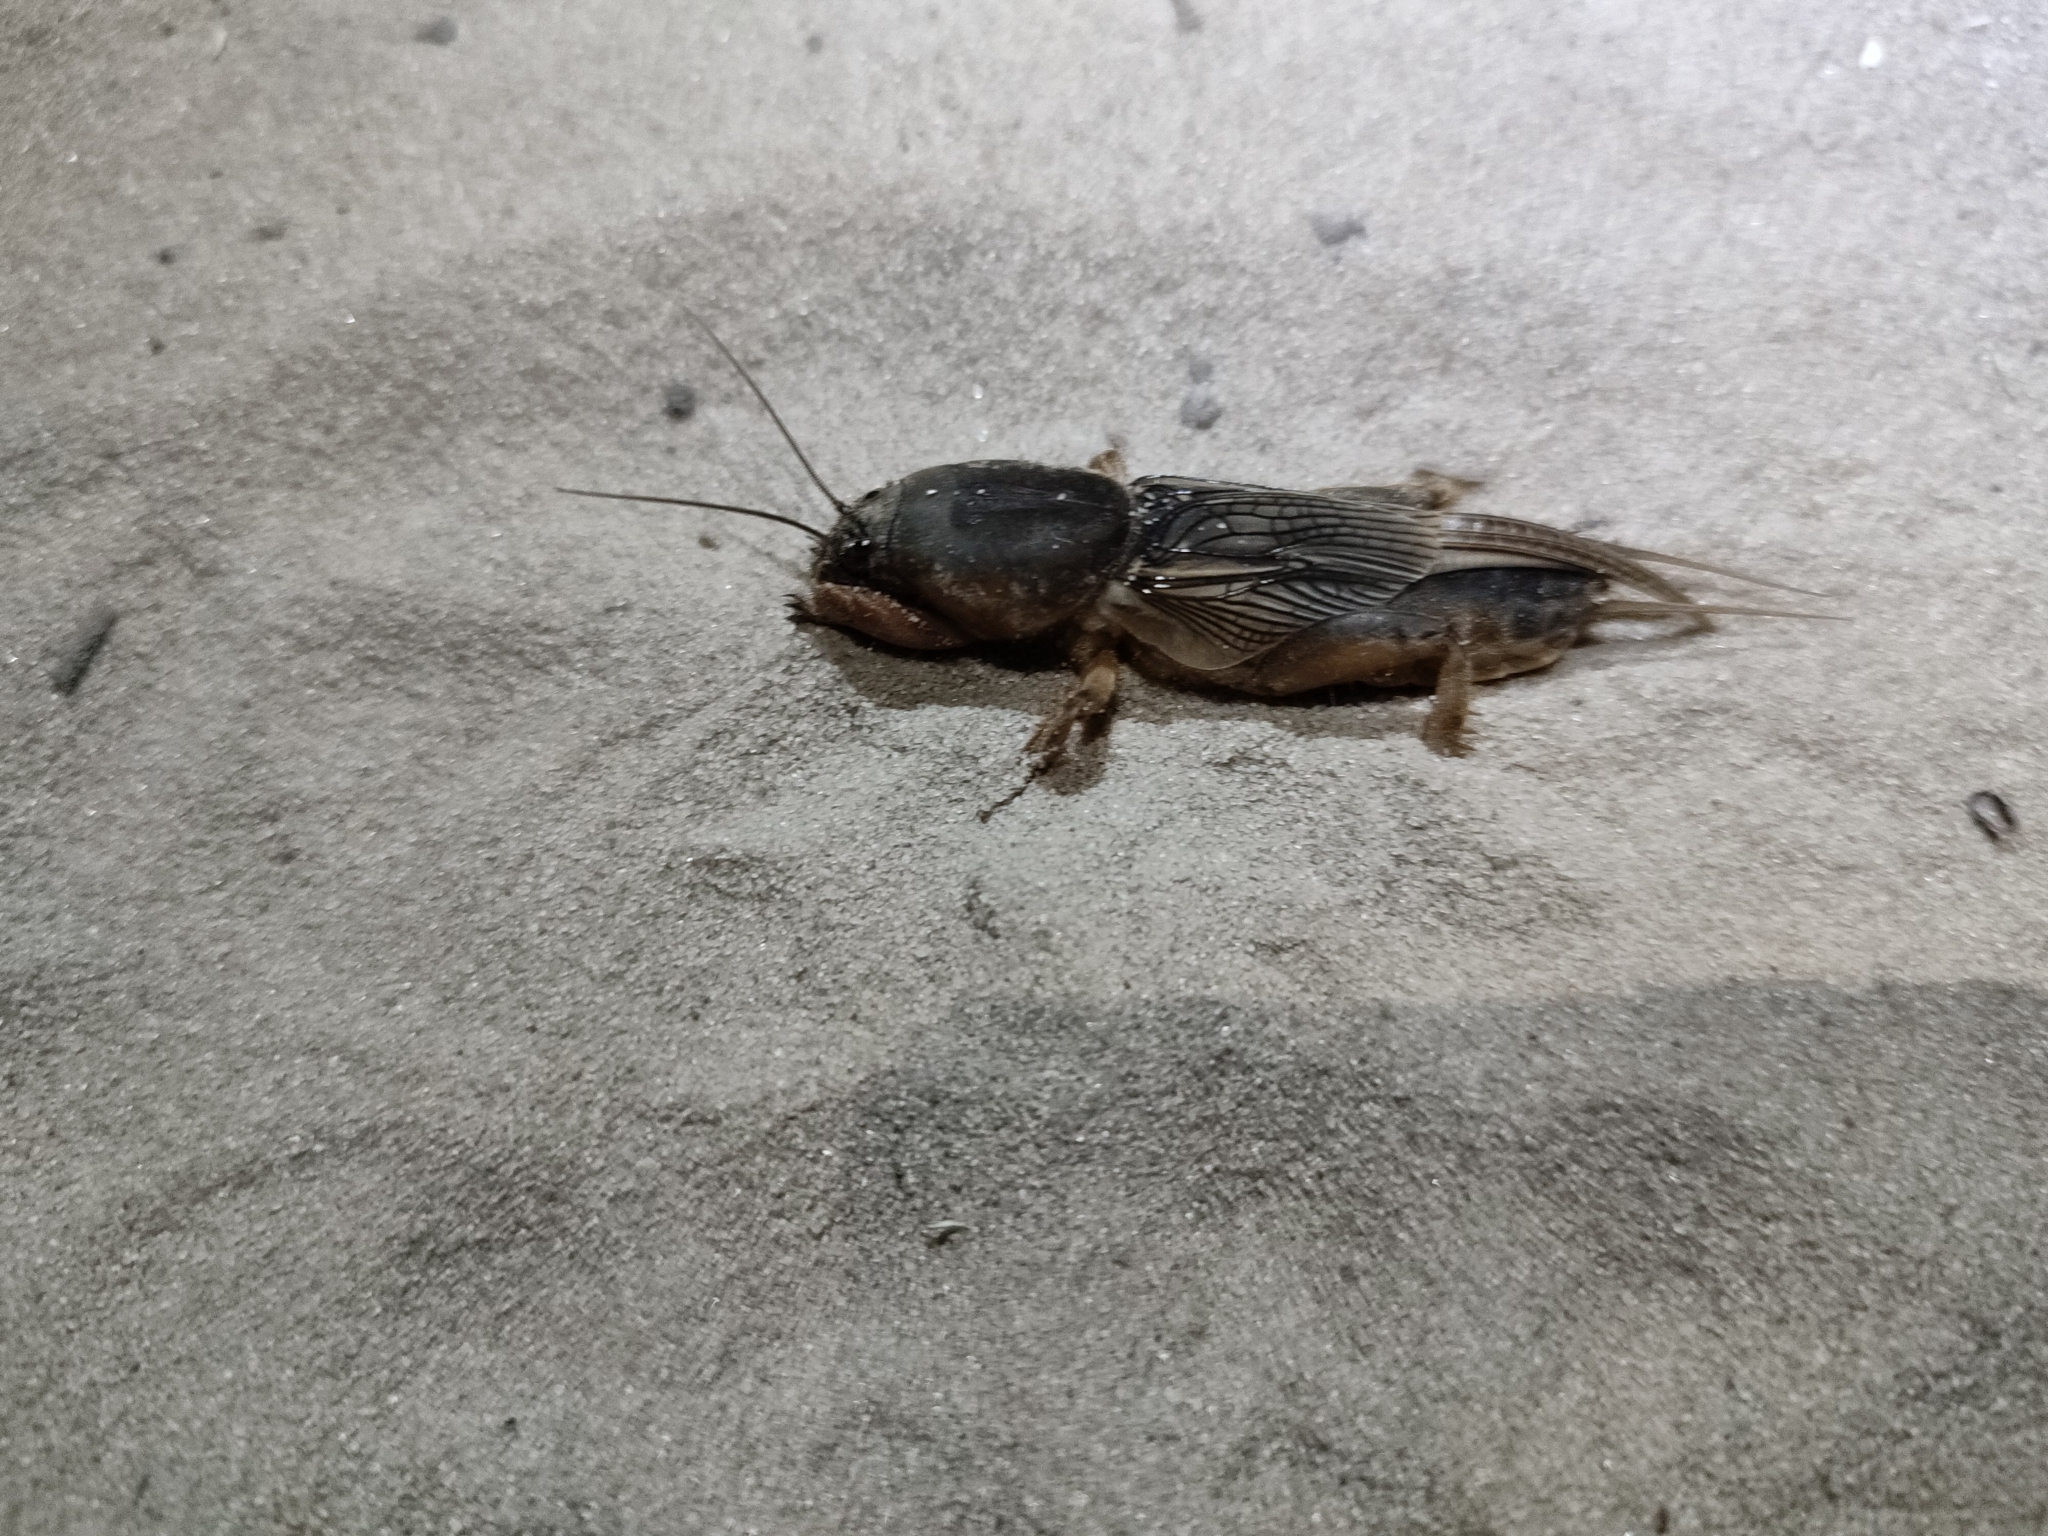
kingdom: Animalia
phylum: Arthropoda
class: Insecta
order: Orthoptera
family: Gryllotalpidae
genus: Gryllotalpa
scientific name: Gryllotalpa gryllotalpa
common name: European mole cricket
